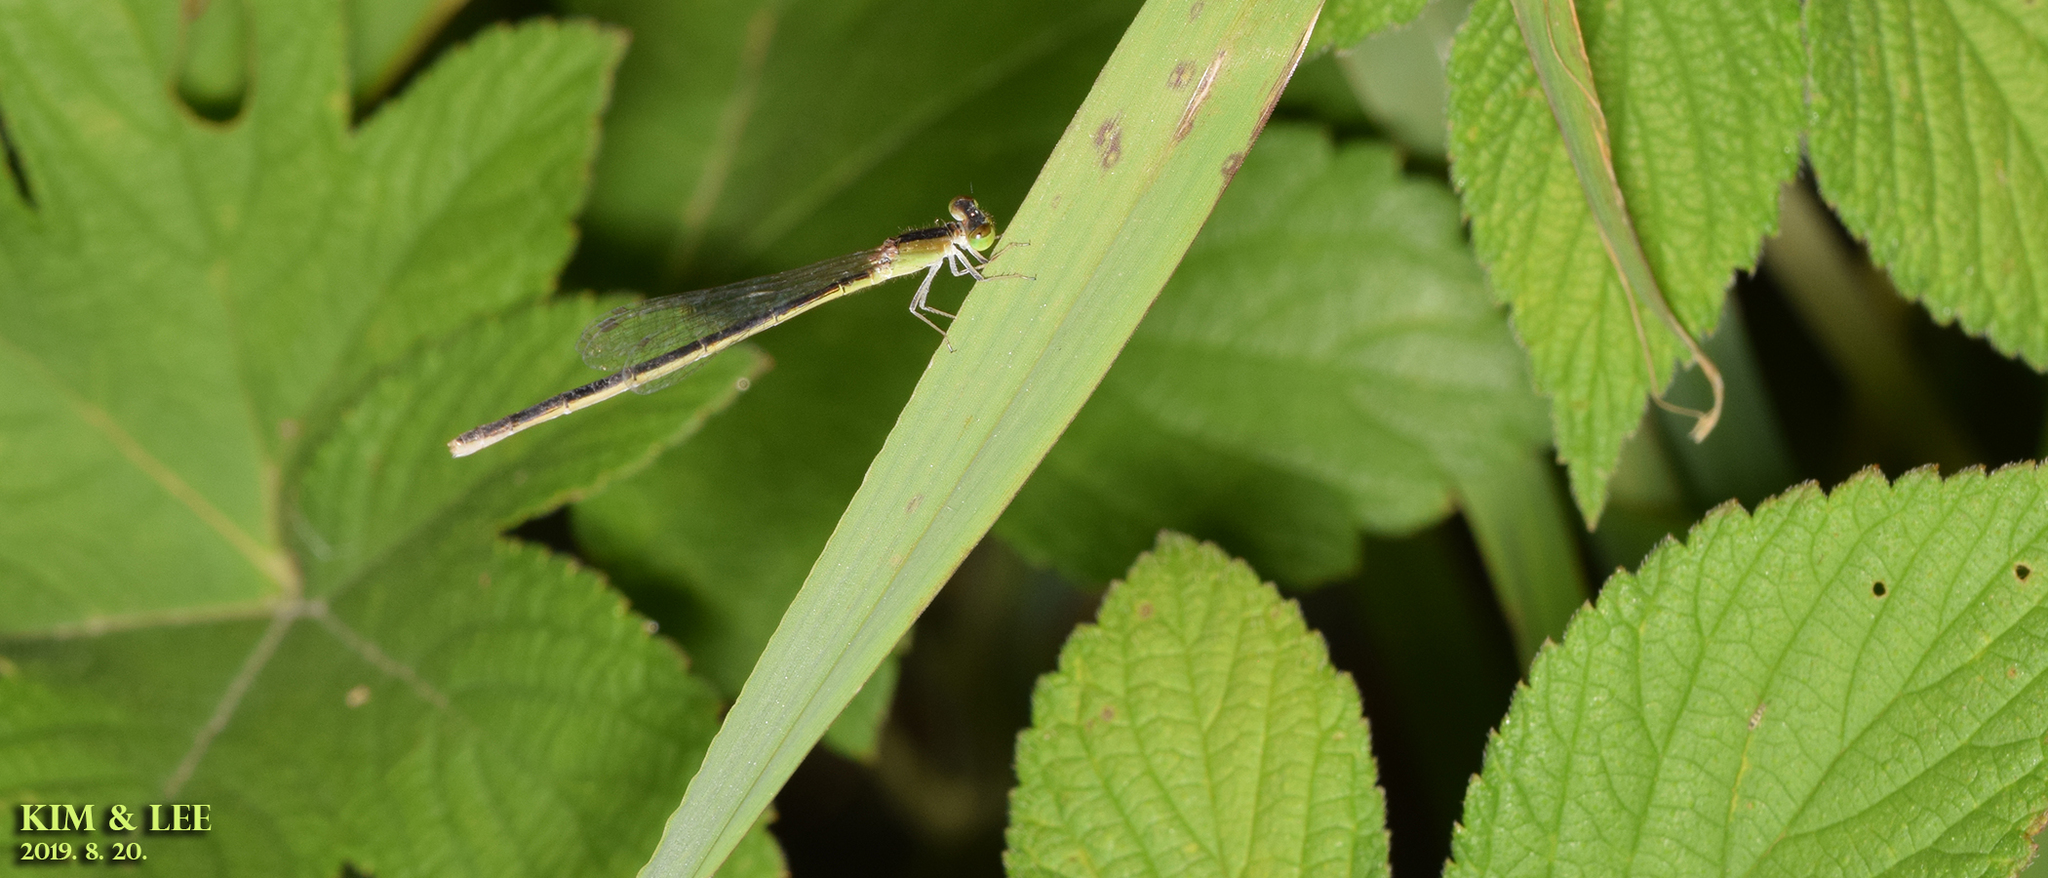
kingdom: Animalia
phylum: Arthropoda
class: Insecta
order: Odonata
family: Coenagrionidae
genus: Ischnura
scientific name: Ischnura asiatica
